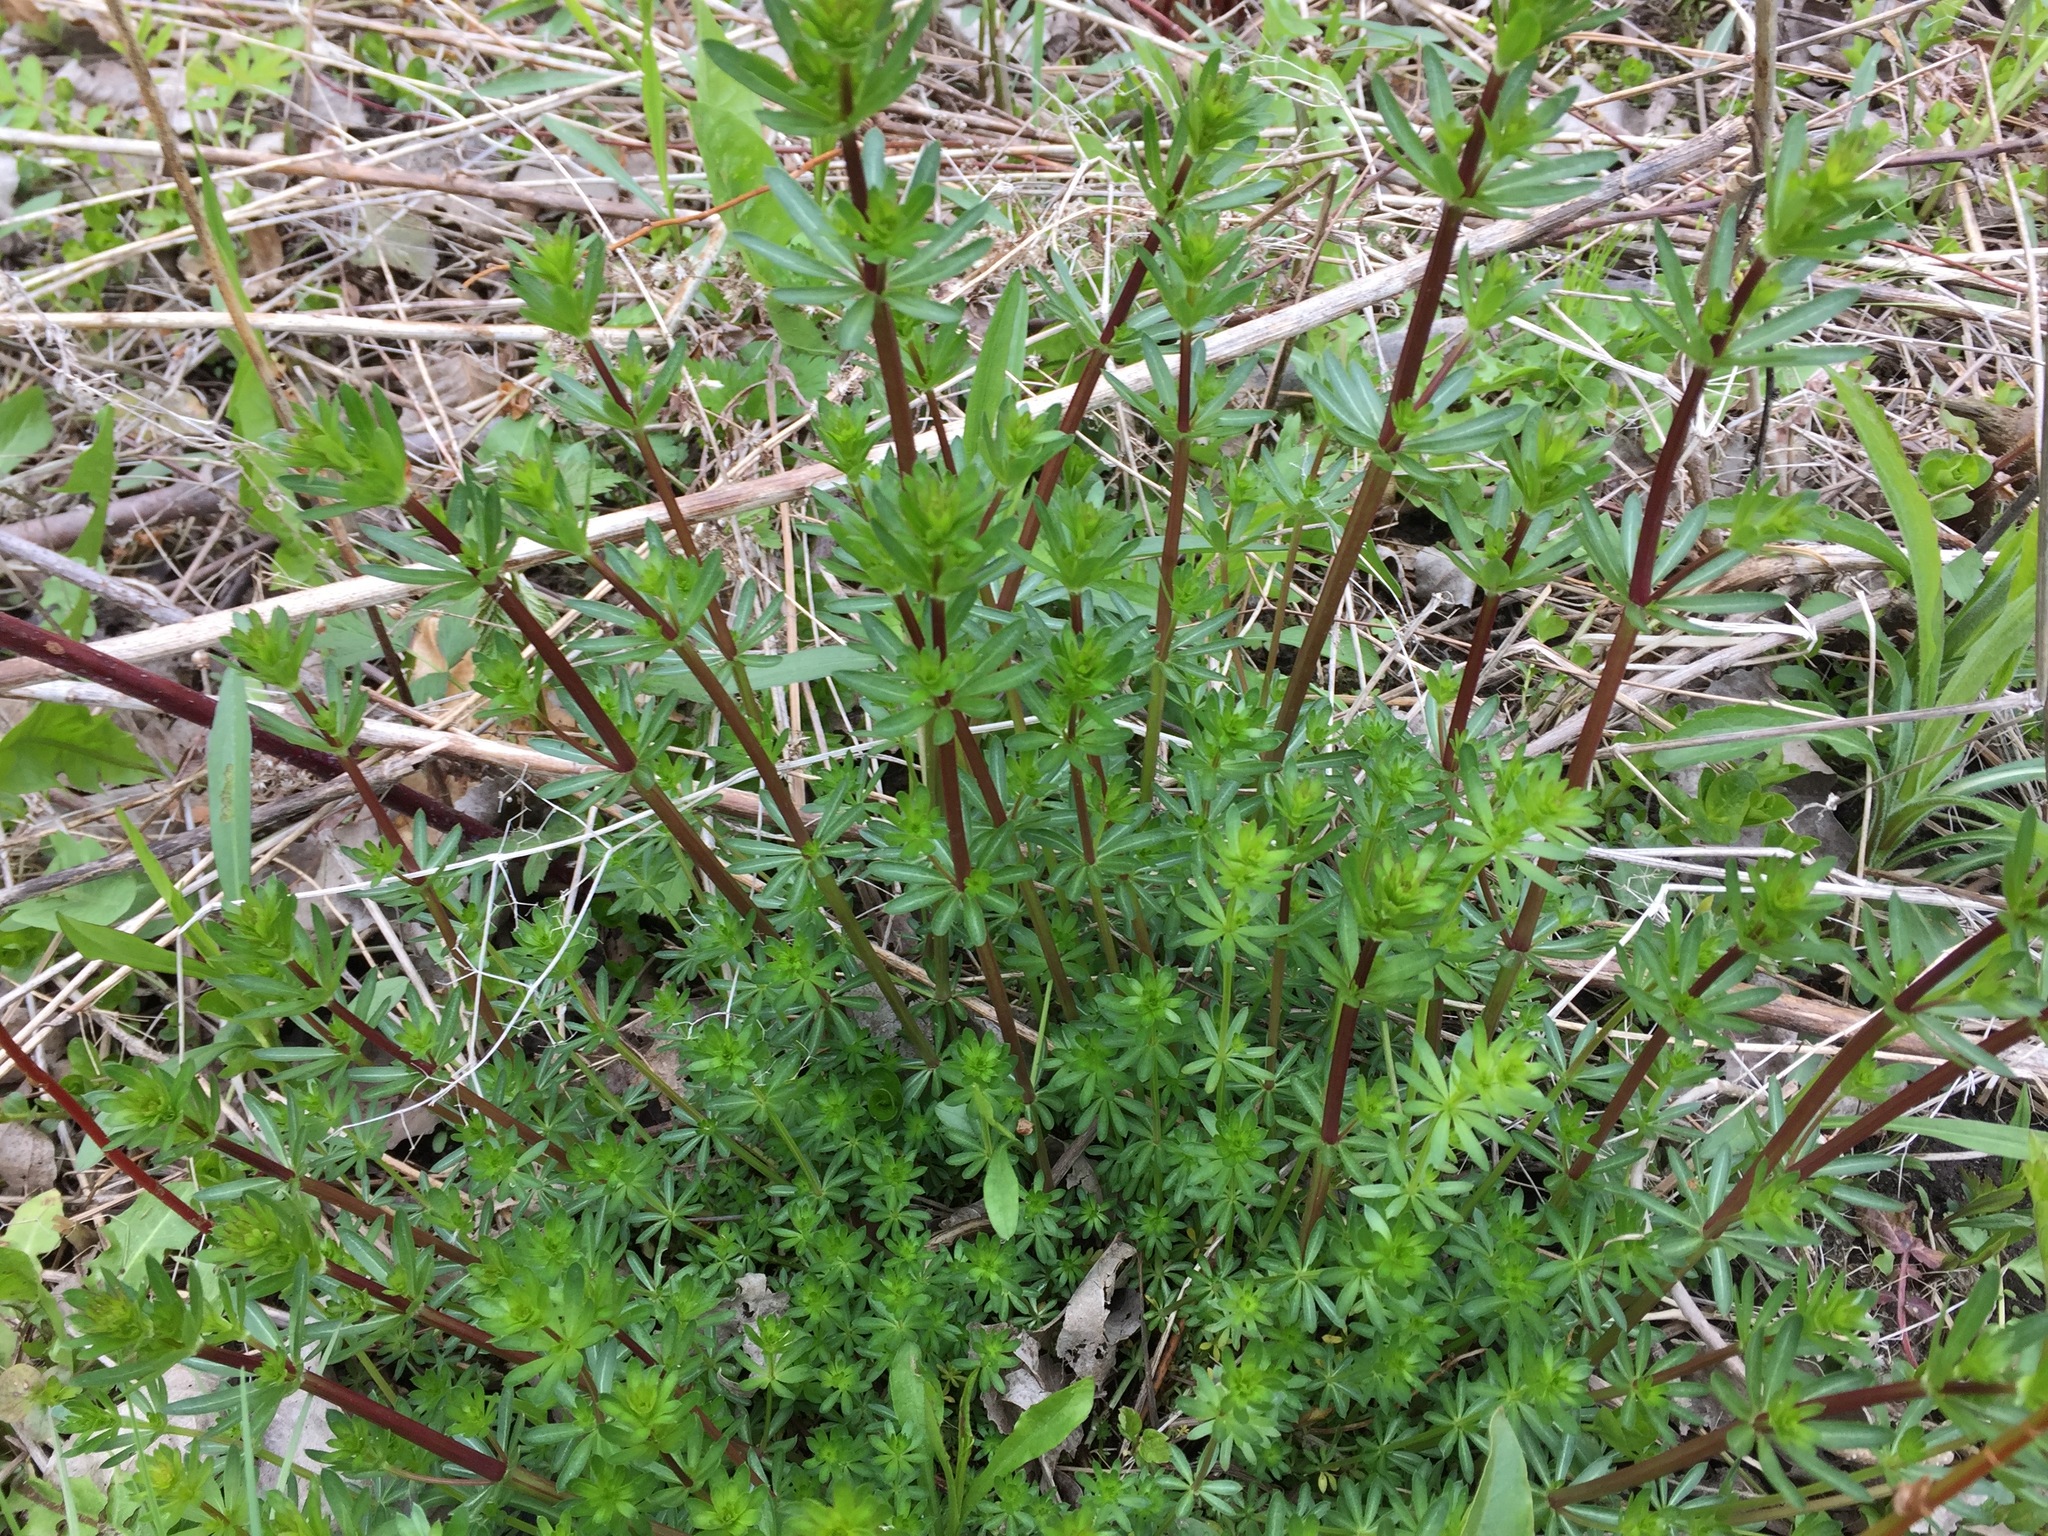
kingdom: Plantae
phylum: Tracheophyta
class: Magnoliopsida
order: Gentianales
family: Rubiaceae
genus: Galium
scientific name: Galium mollugo
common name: Hedge bedstraw
